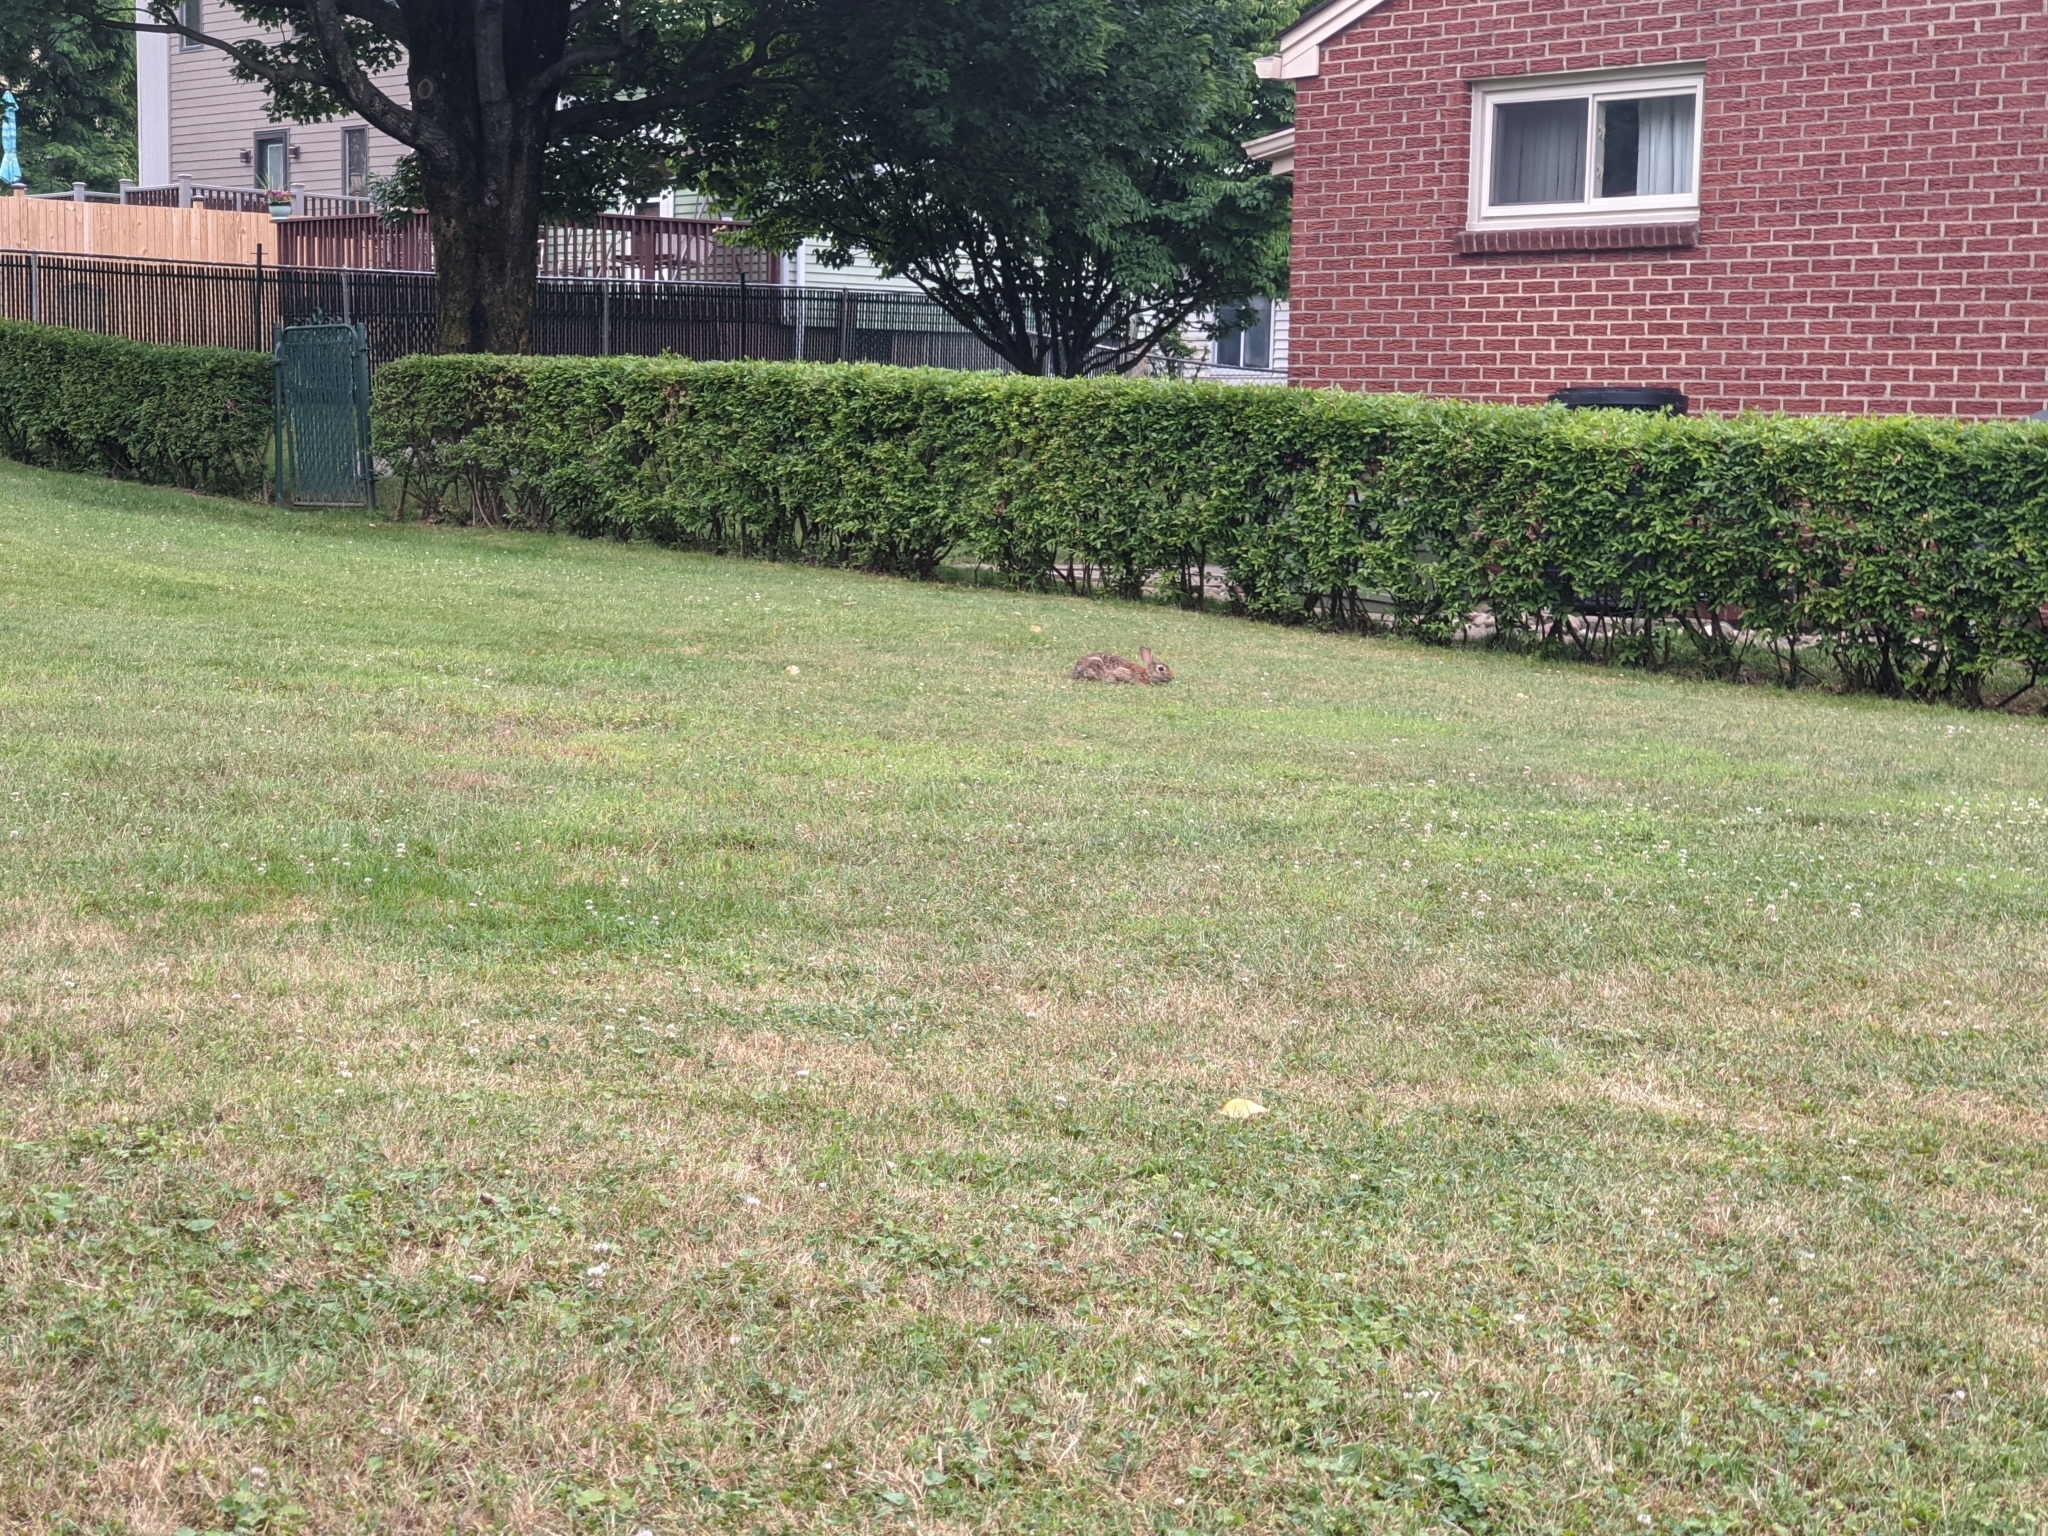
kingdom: Animalia
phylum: Chordata
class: Mammalia
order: Lagomorpha
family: Leporidae
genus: Sylvilagus
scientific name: Sylvilagus floridanus
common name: Eastern cottontail
